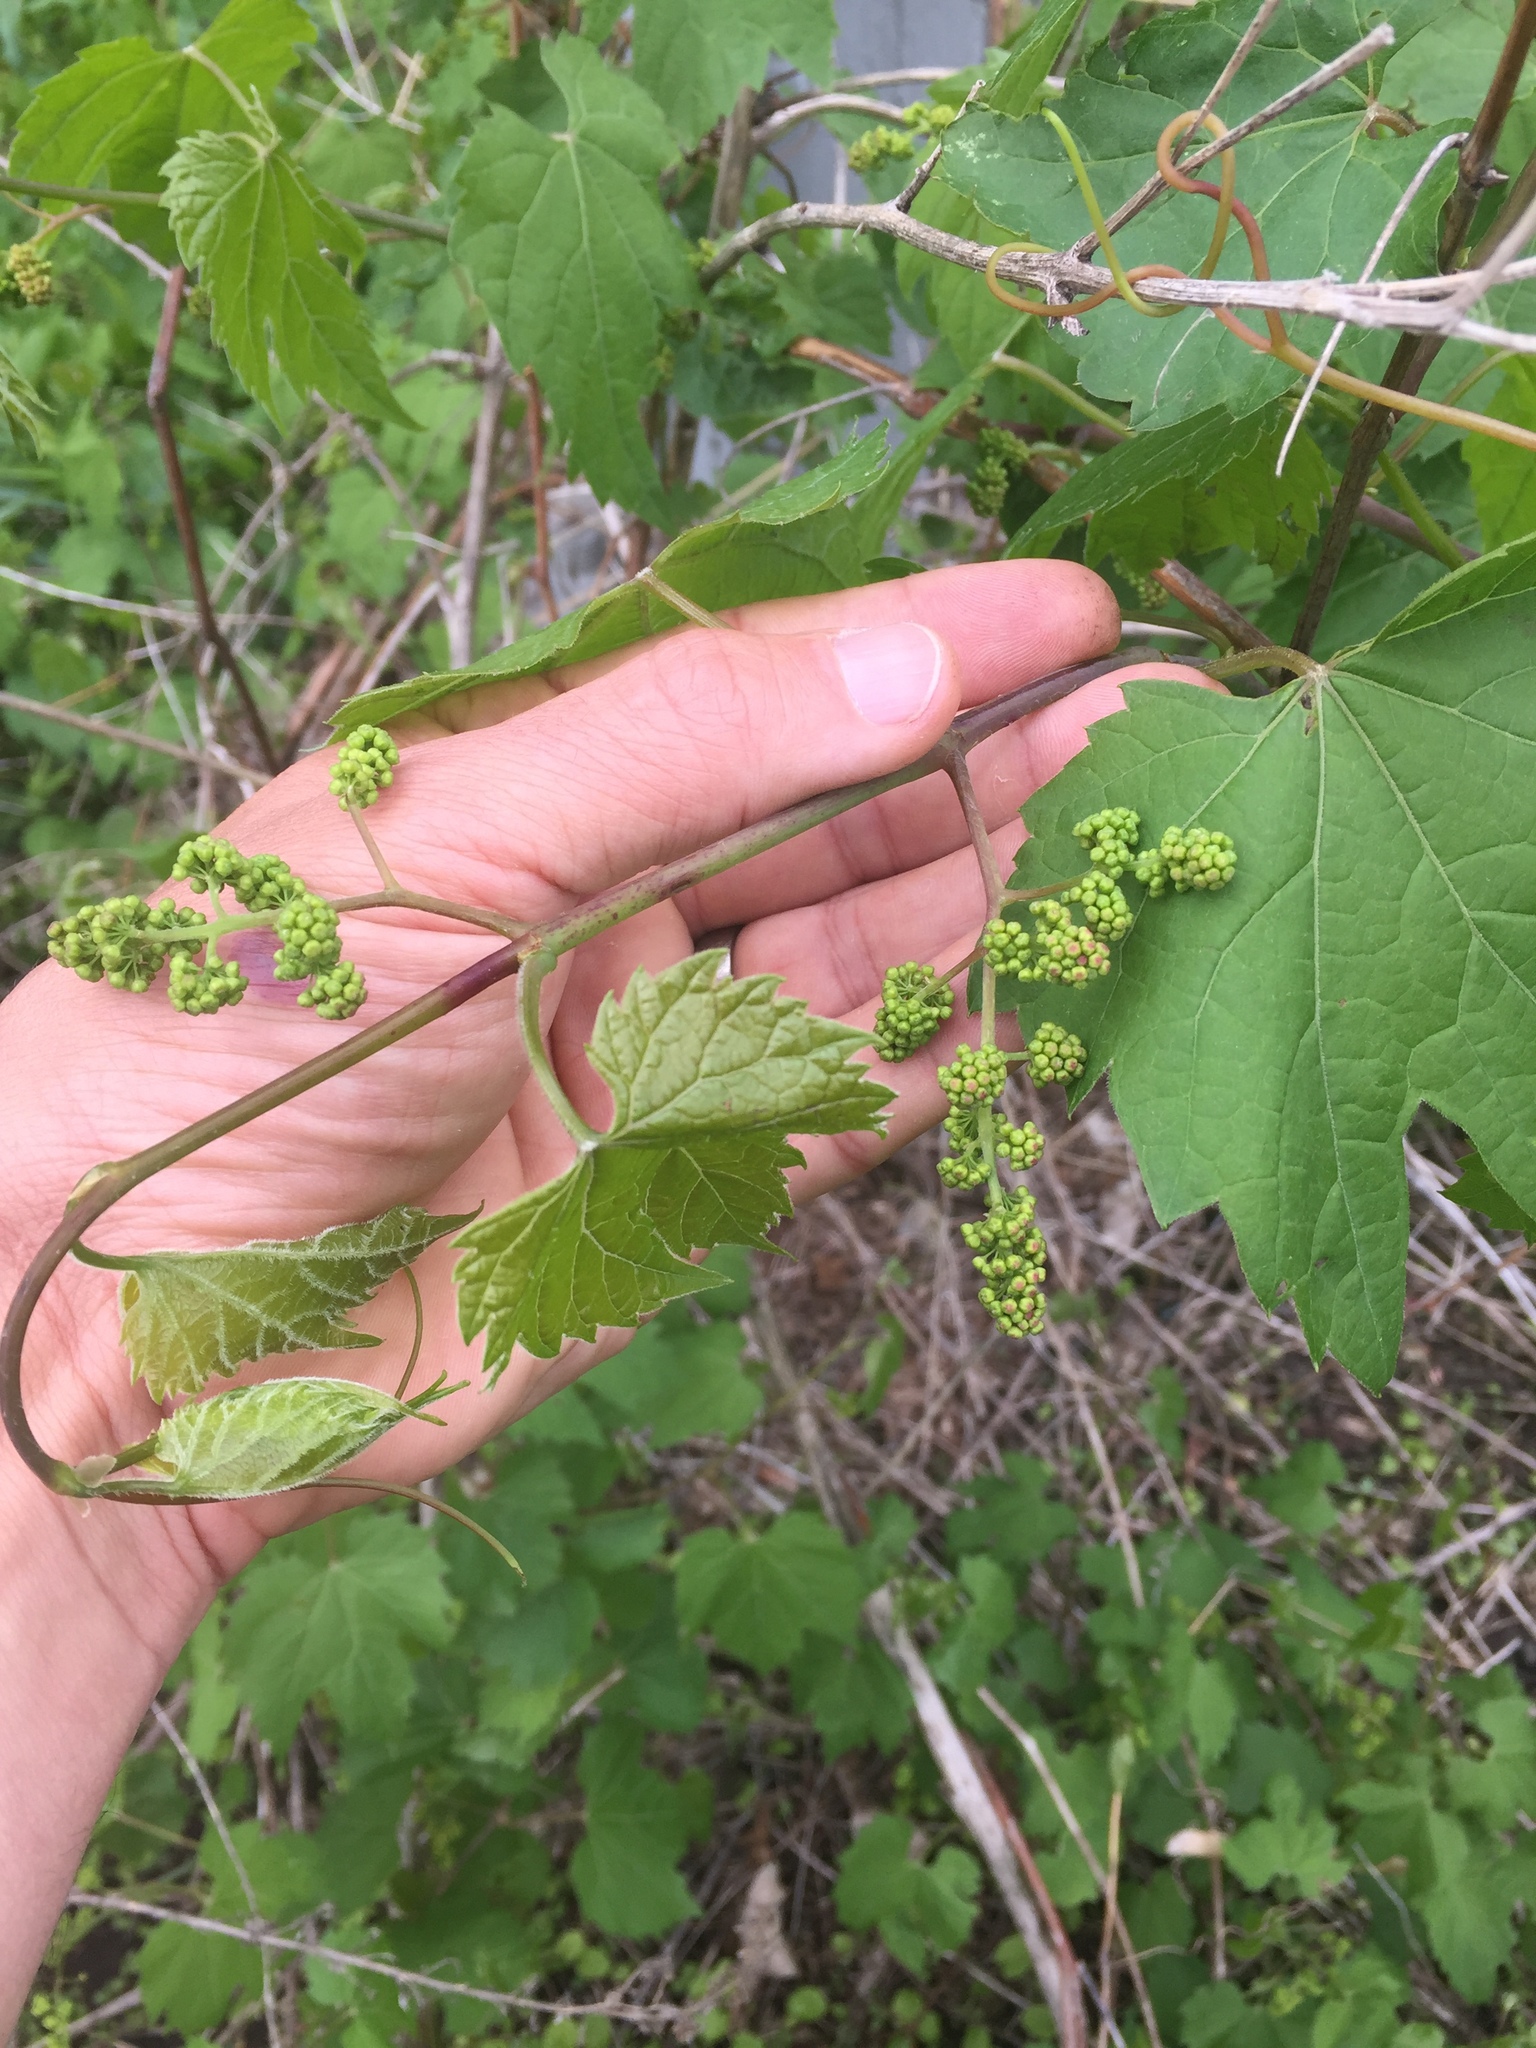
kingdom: Plantae
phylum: Tracheophyta
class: Magnoliopsida
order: Vitales
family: Vitaceae
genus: Vitis
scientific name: Vitis riparia
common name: Frost grape
